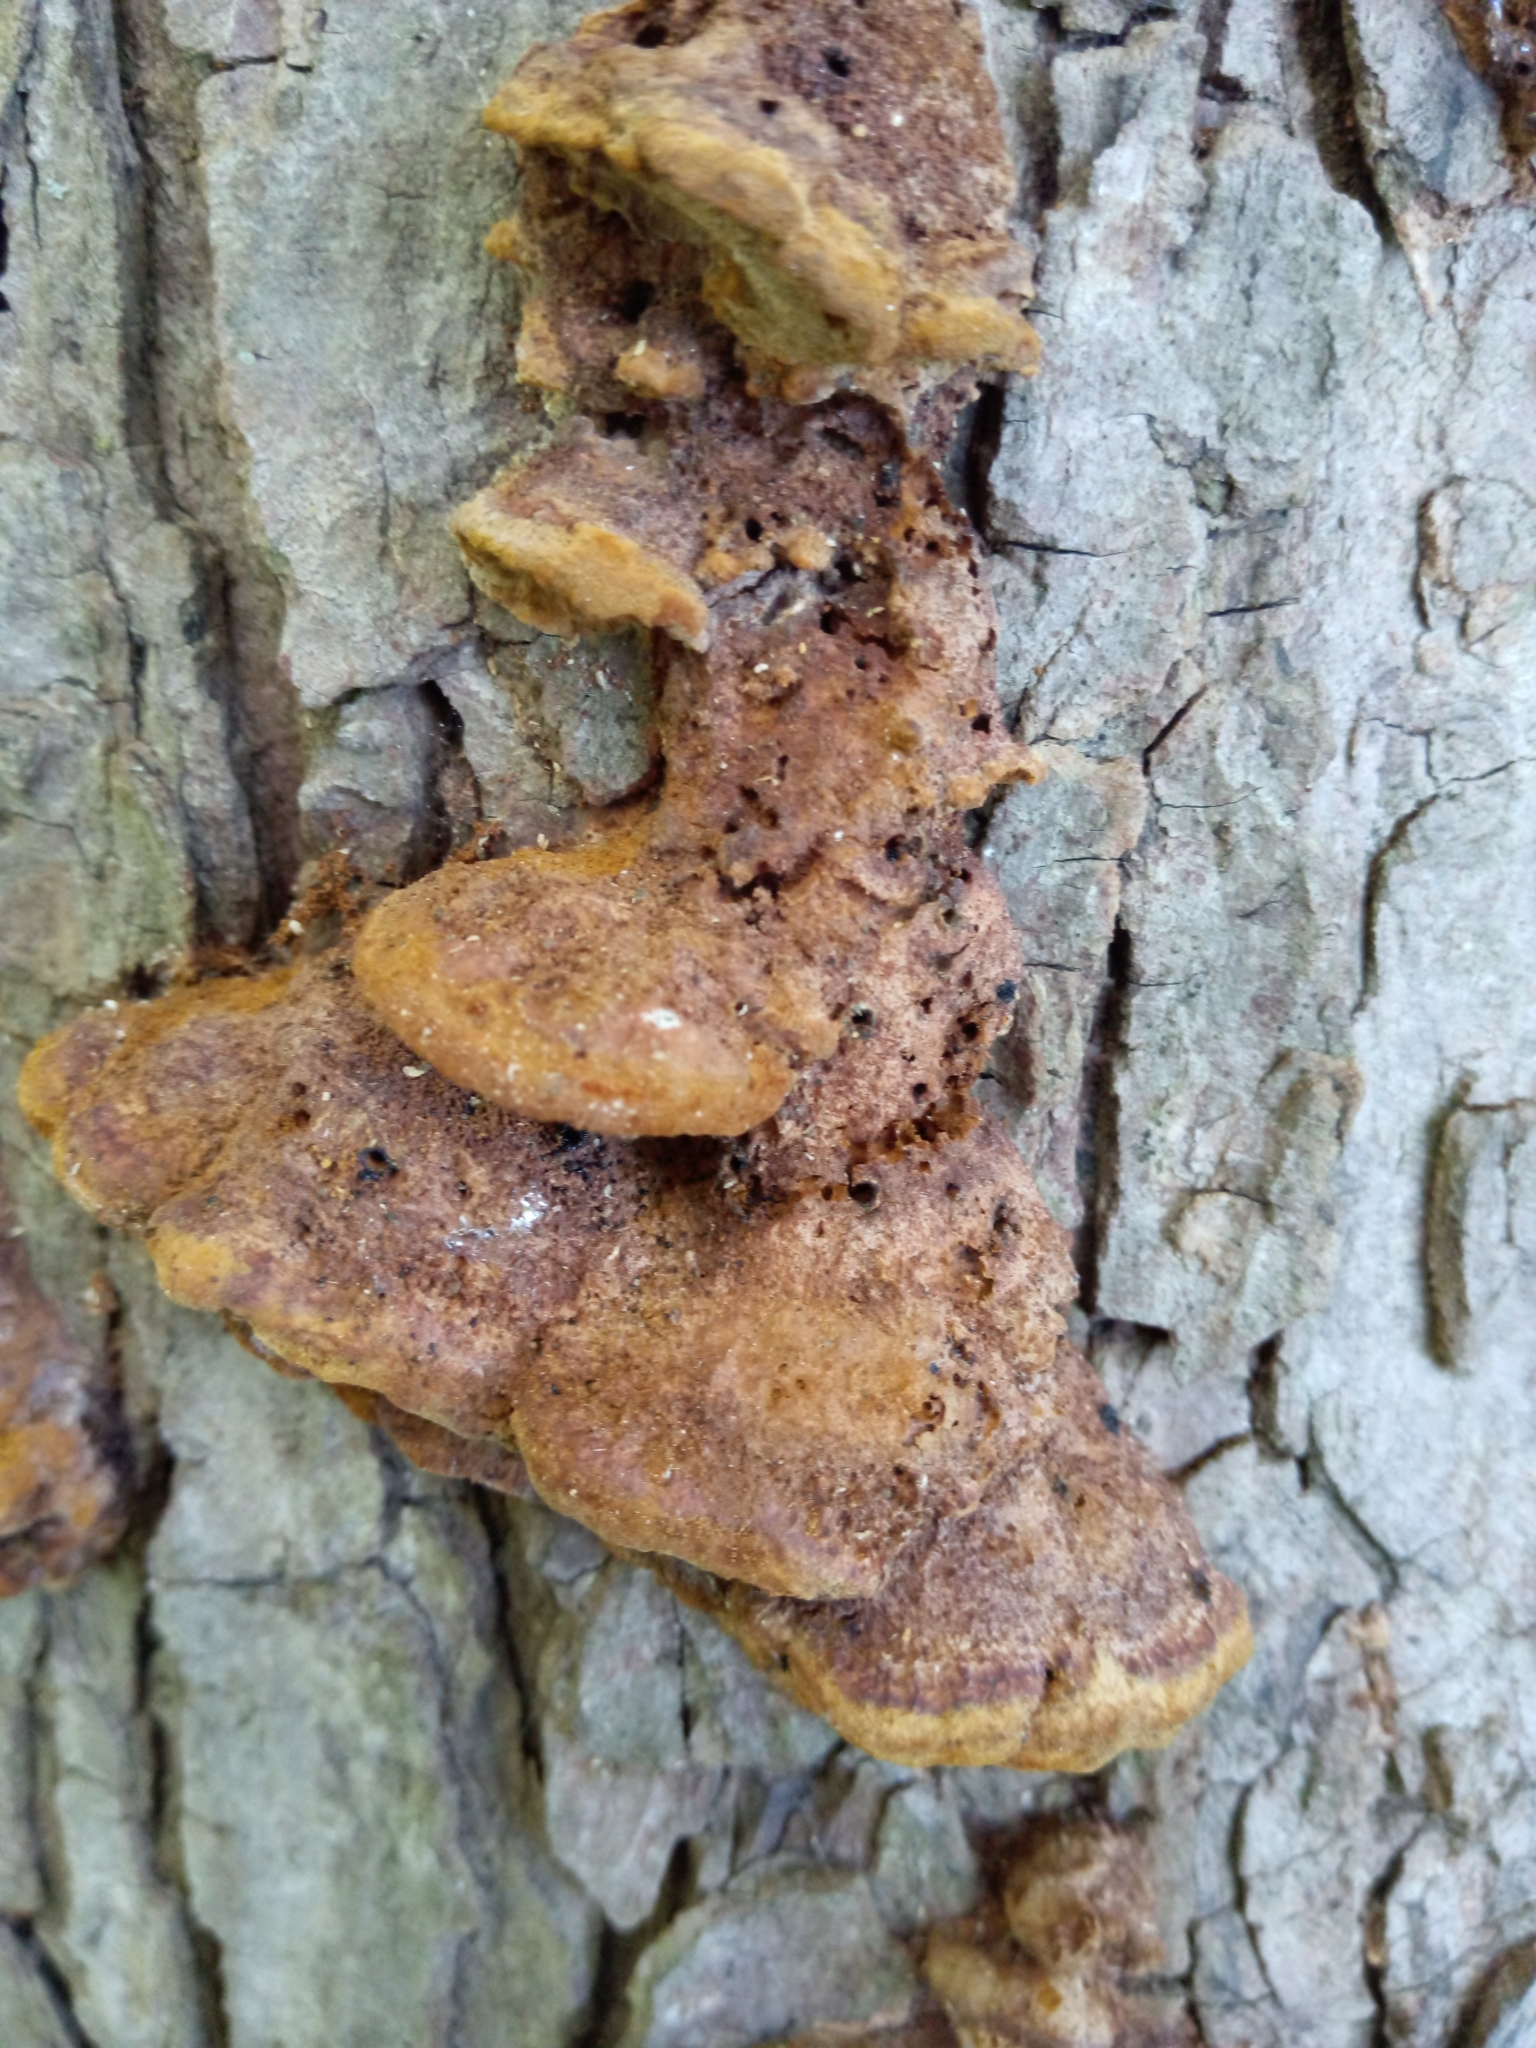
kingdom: Fungi
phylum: Basidiomycota
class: Agaricomycetes
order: Hymenochaetales
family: Hymenochaetaceae
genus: Phellinus
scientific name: Phellinus gilvus
